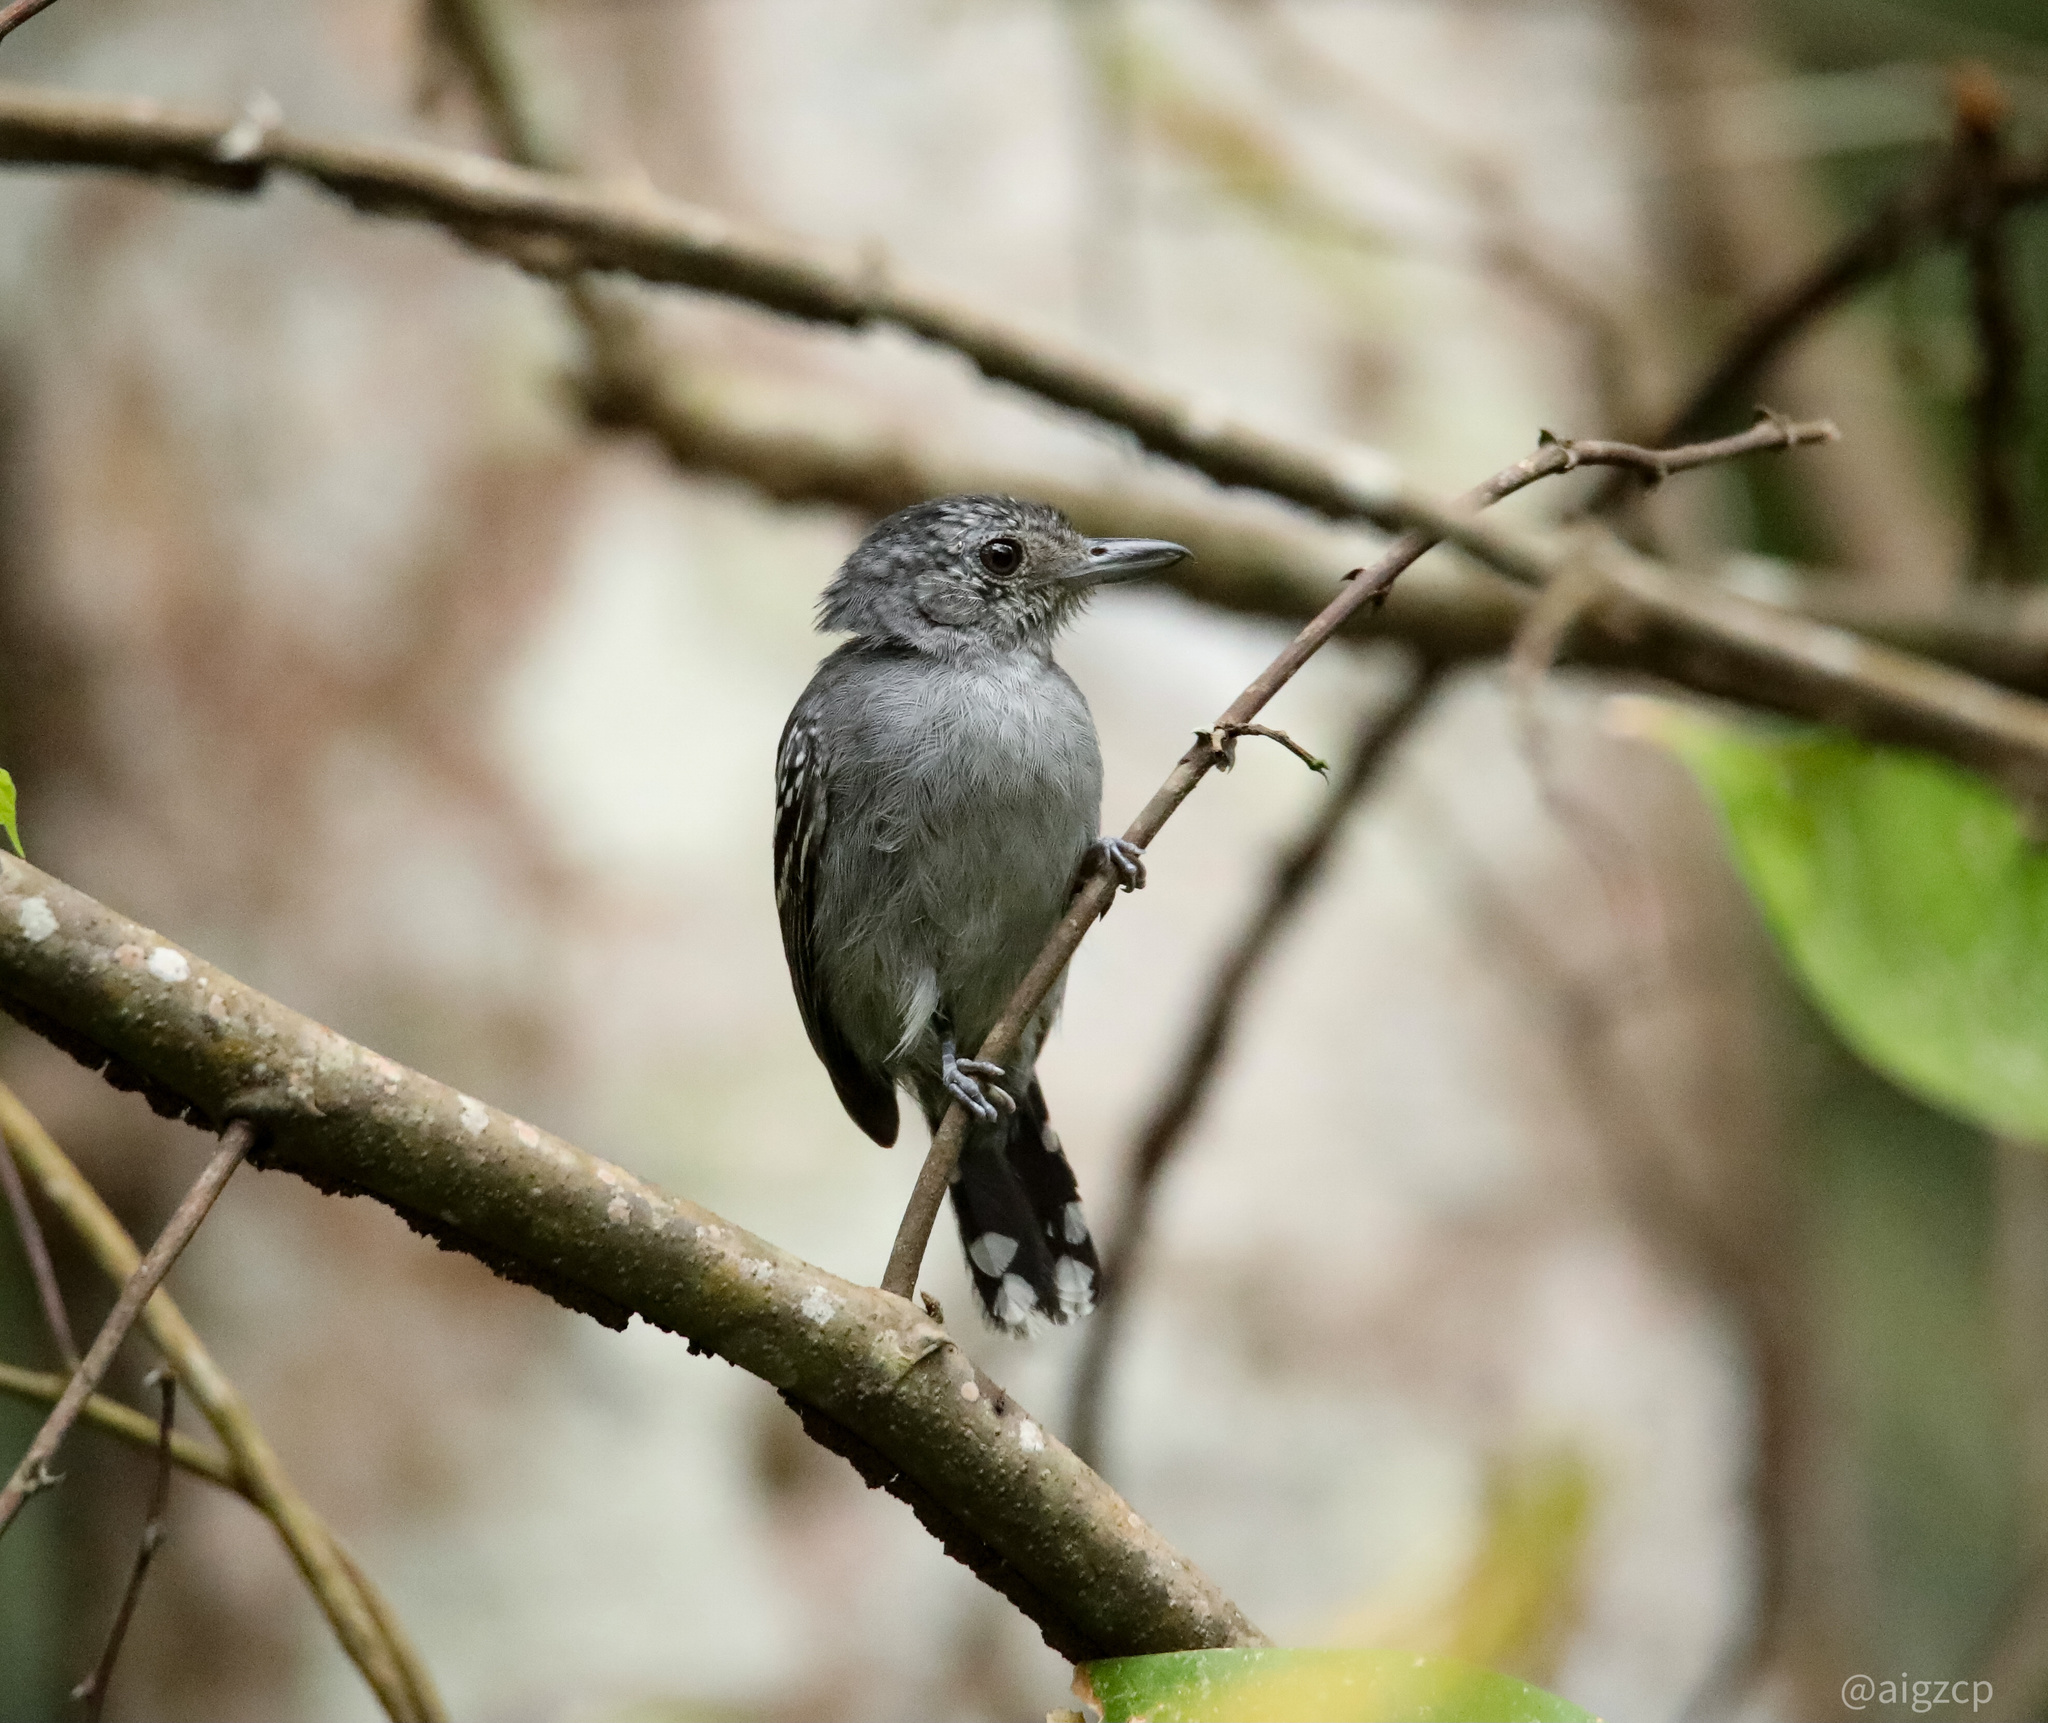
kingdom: Animalia
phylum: Chordata
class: Aves
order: Passeriformes
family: Thamnophilidae
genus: Thamnophilus
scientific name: Thamnophilus atrinucha
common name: Black-crowned antshrike
